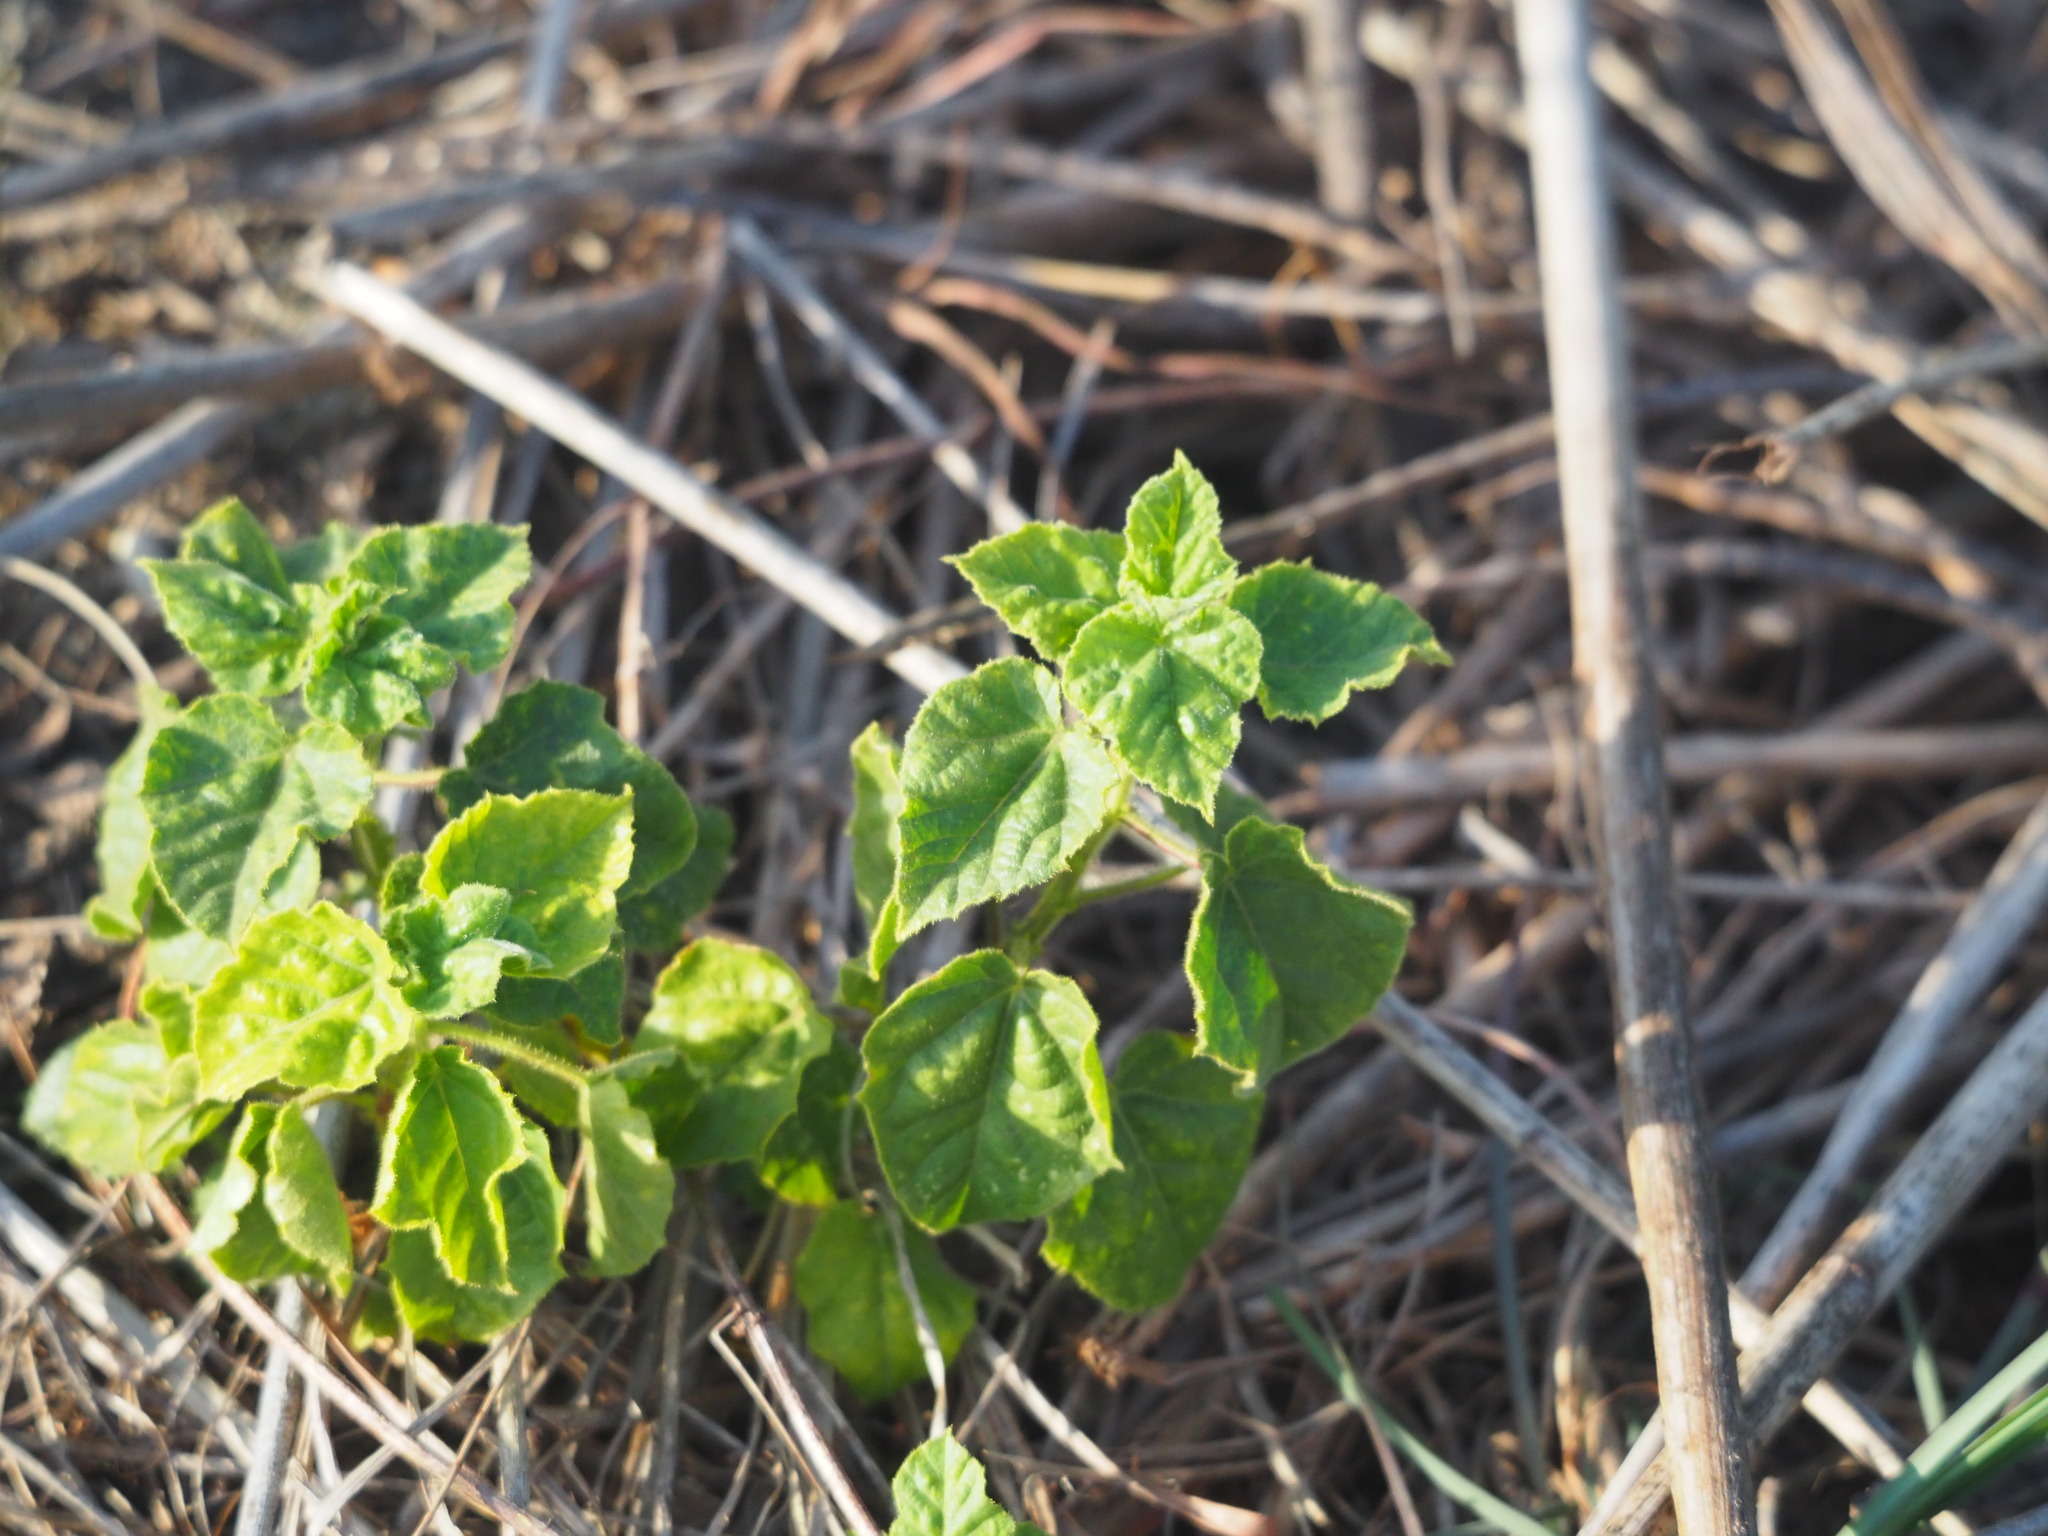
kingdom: Plantae
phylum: Tracheophyta
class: Magnoliopsida
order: Malpighiales
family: Passifloraceae
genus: Passiflora
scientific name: Passiflora vesicaria
